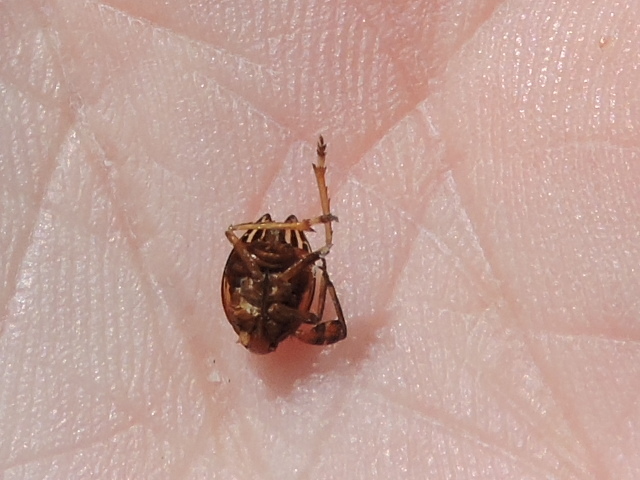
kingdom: Animalia
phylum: Arthropoda
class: Insecta
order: Hemiptera
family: Achilidae
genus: Isodaemon
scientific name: Isodaemon orontes
